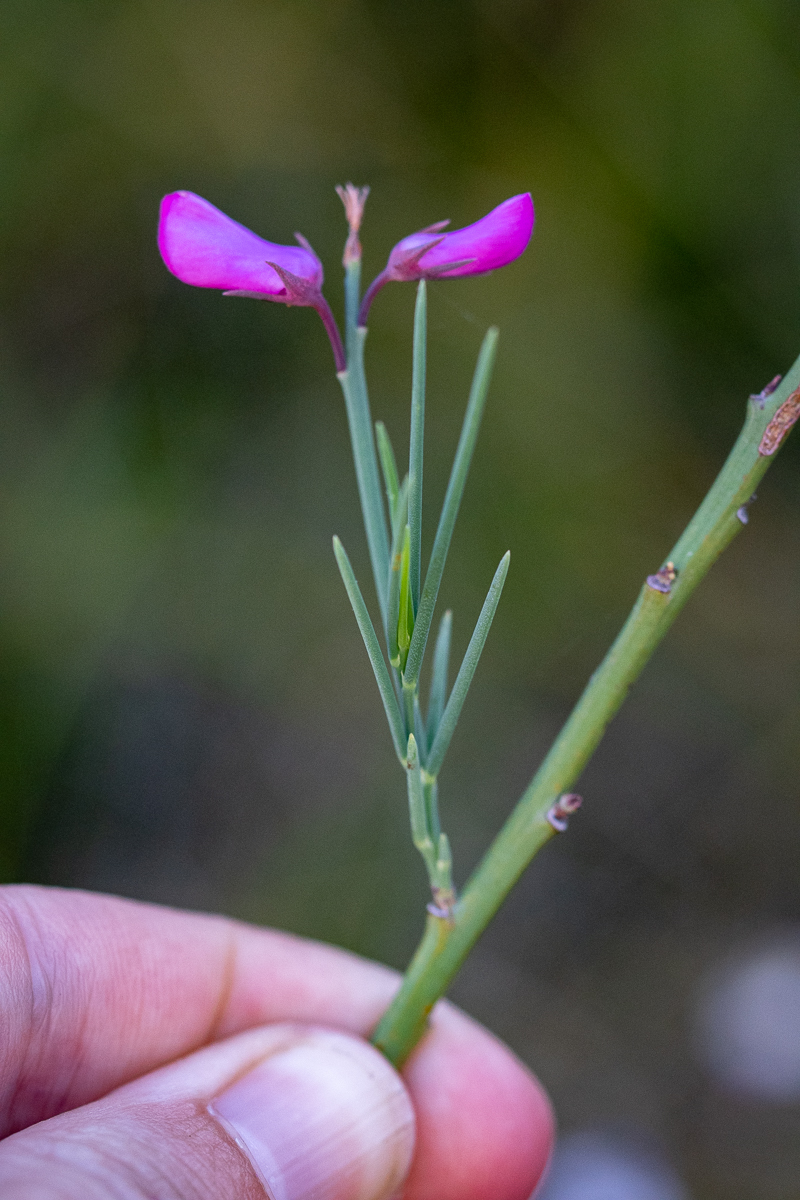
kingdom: Plantae
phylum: Tracheophyta
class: Magnoliopsida
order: Fabales
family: Fabaceae
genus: Indigofera
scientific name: Indigofera filifolia
